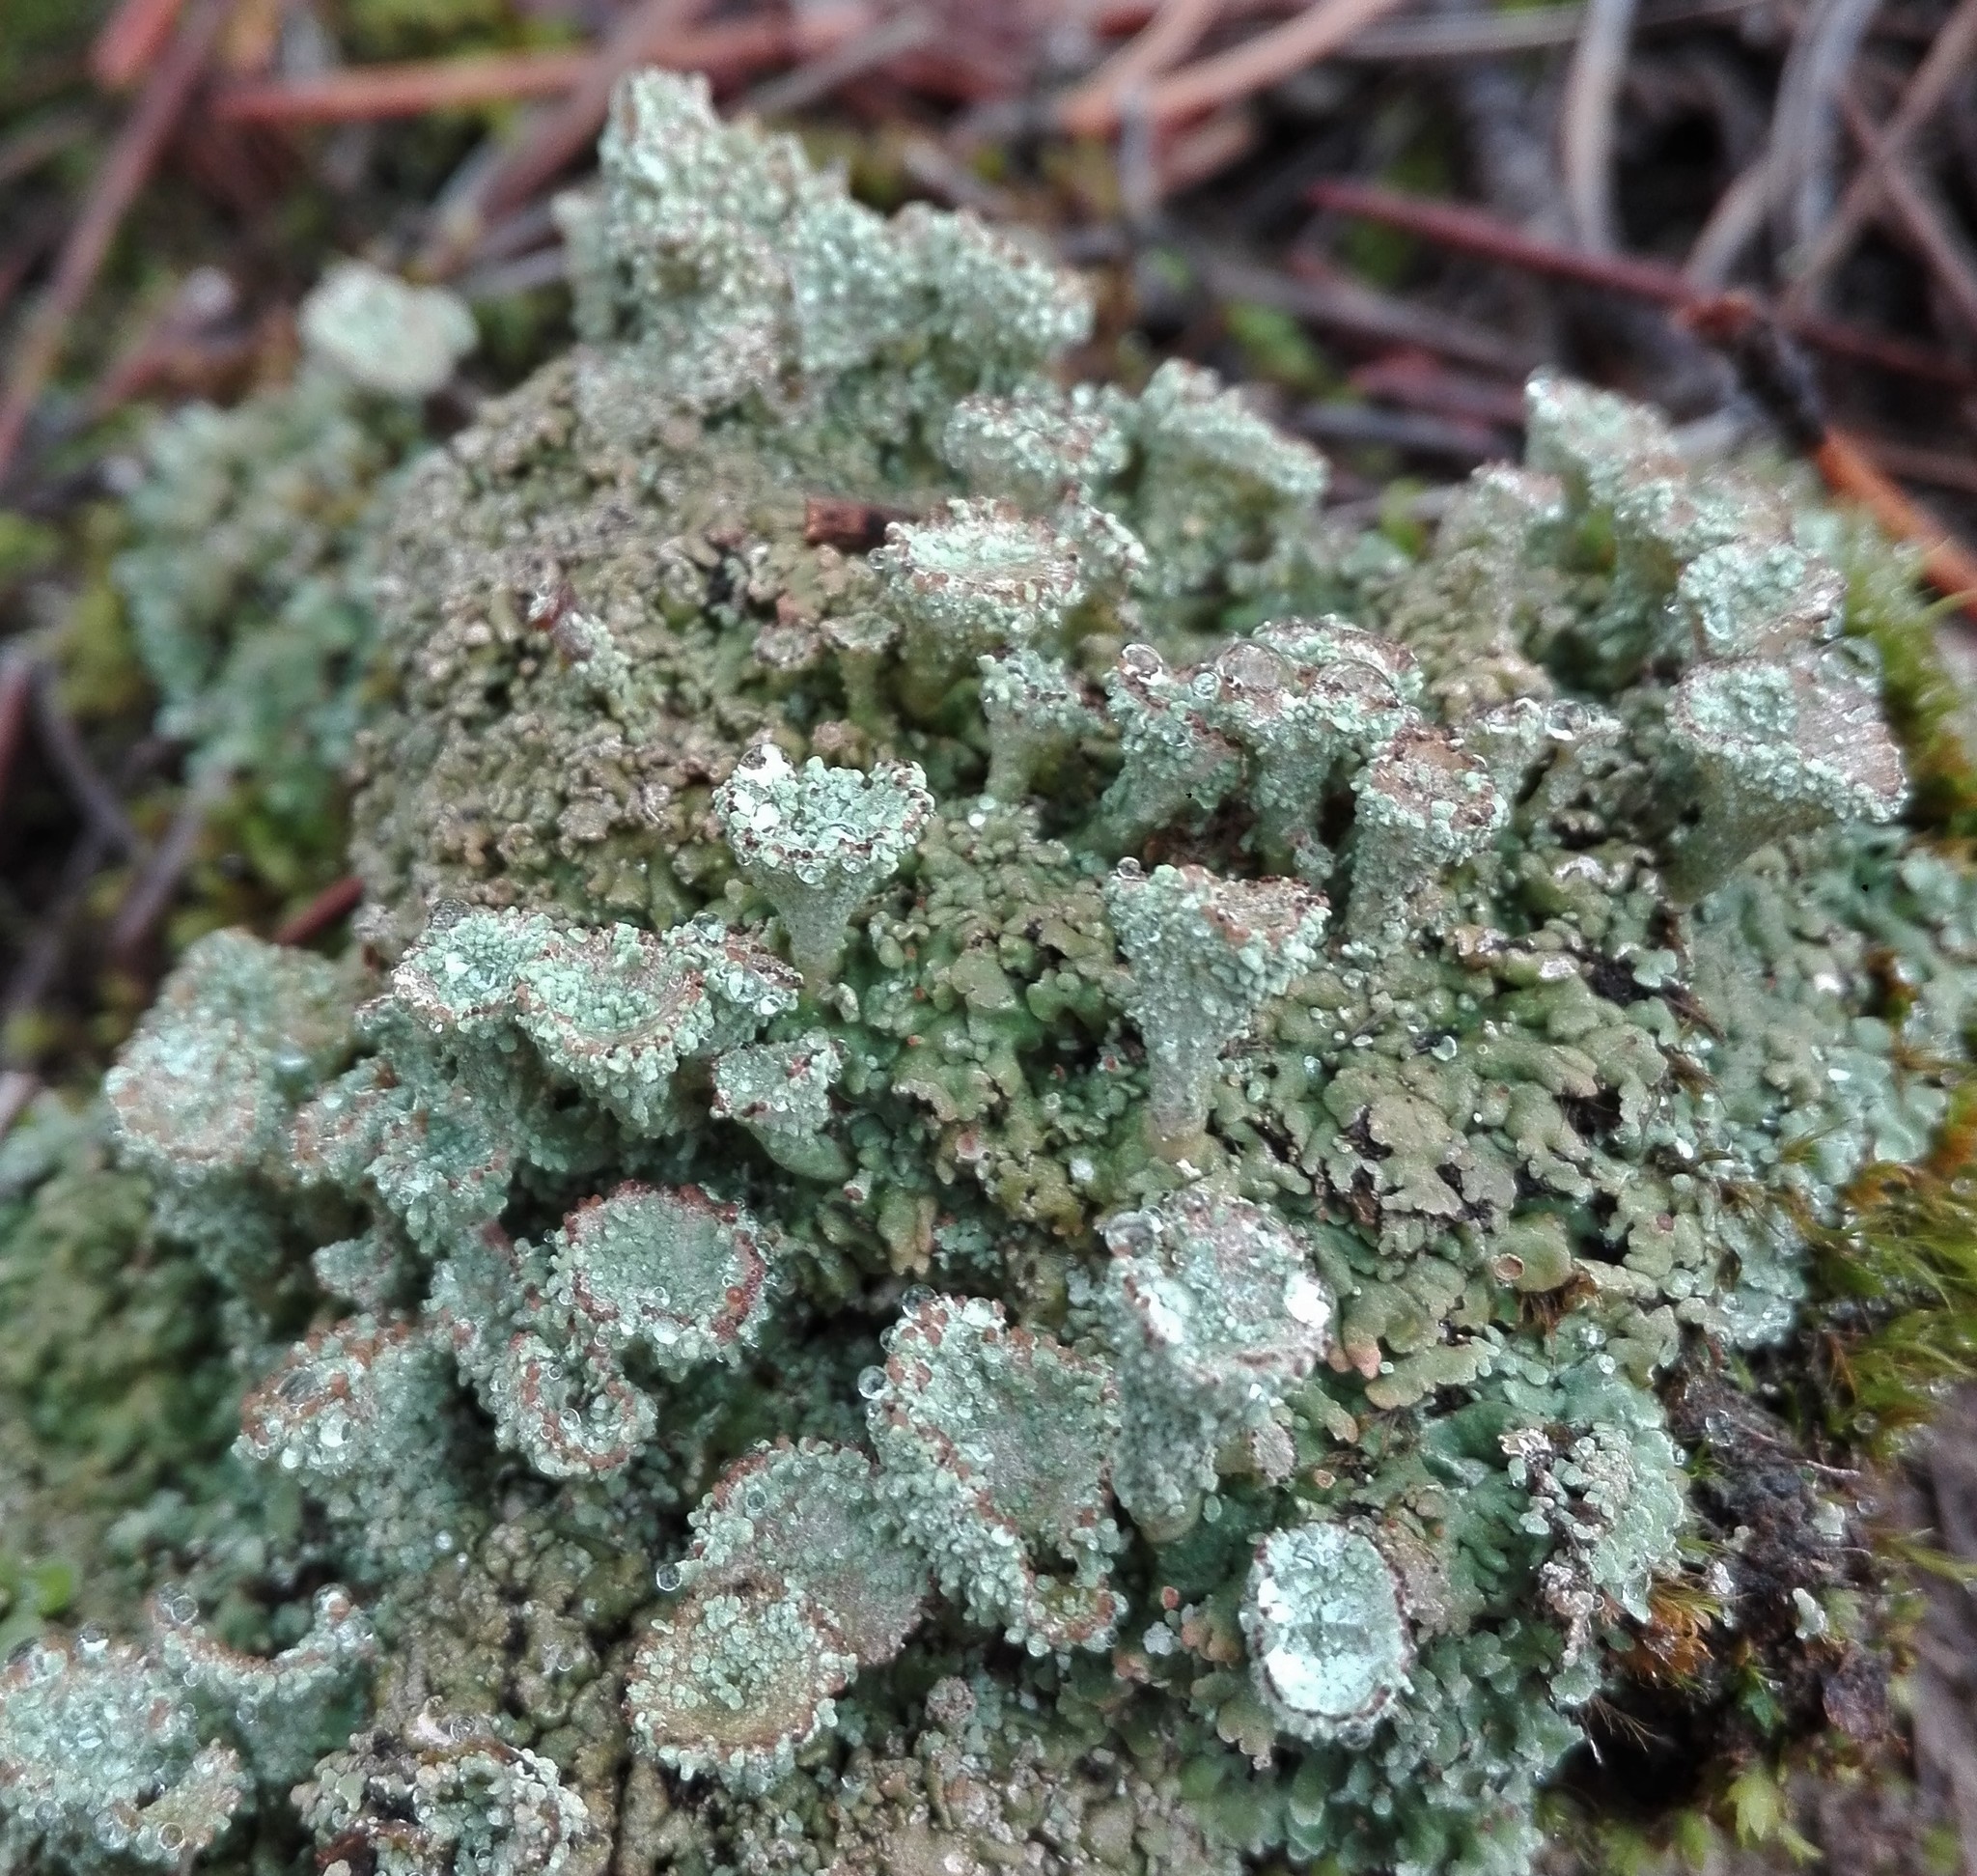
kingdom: Fungi
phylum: Ascomycota
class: Lecanoromycetes
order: Lecanorales
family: Cladoniaceae
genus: Cladonia
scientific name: Cladonia pyxidata
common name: Pebbled pixie cup
